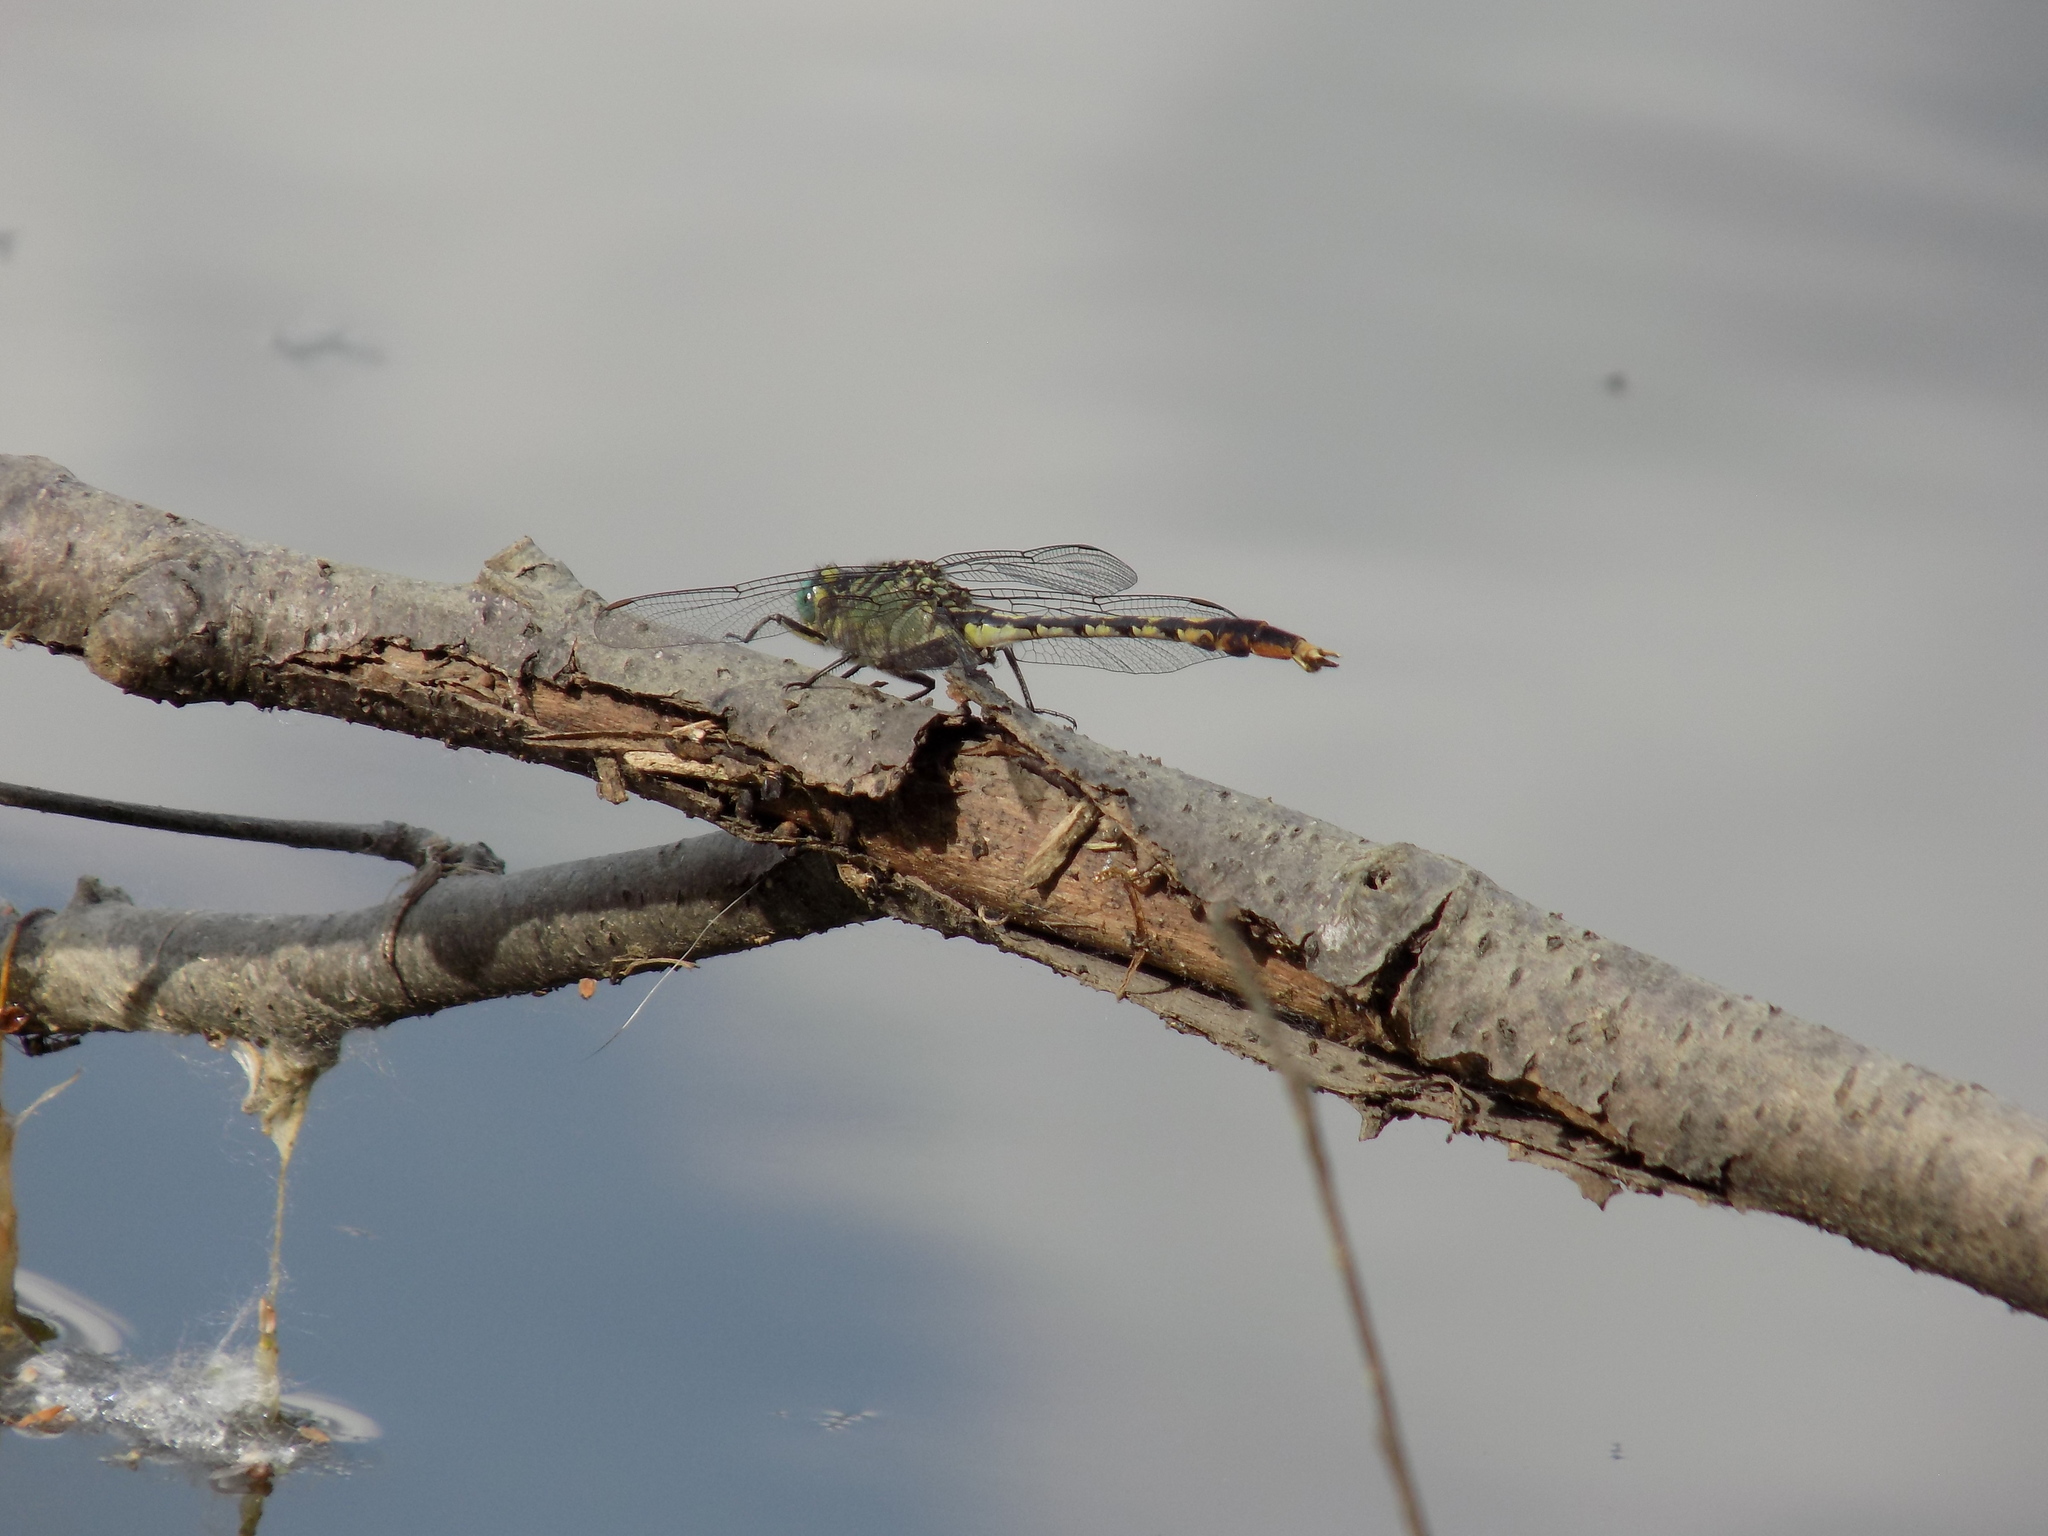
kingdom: Animalia
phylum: Arthropoda
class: Insecta
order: Odonata
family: Gomphidae
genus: Arigomphus
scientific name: Arigomphus villosipes
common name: Unicorn clubtail
